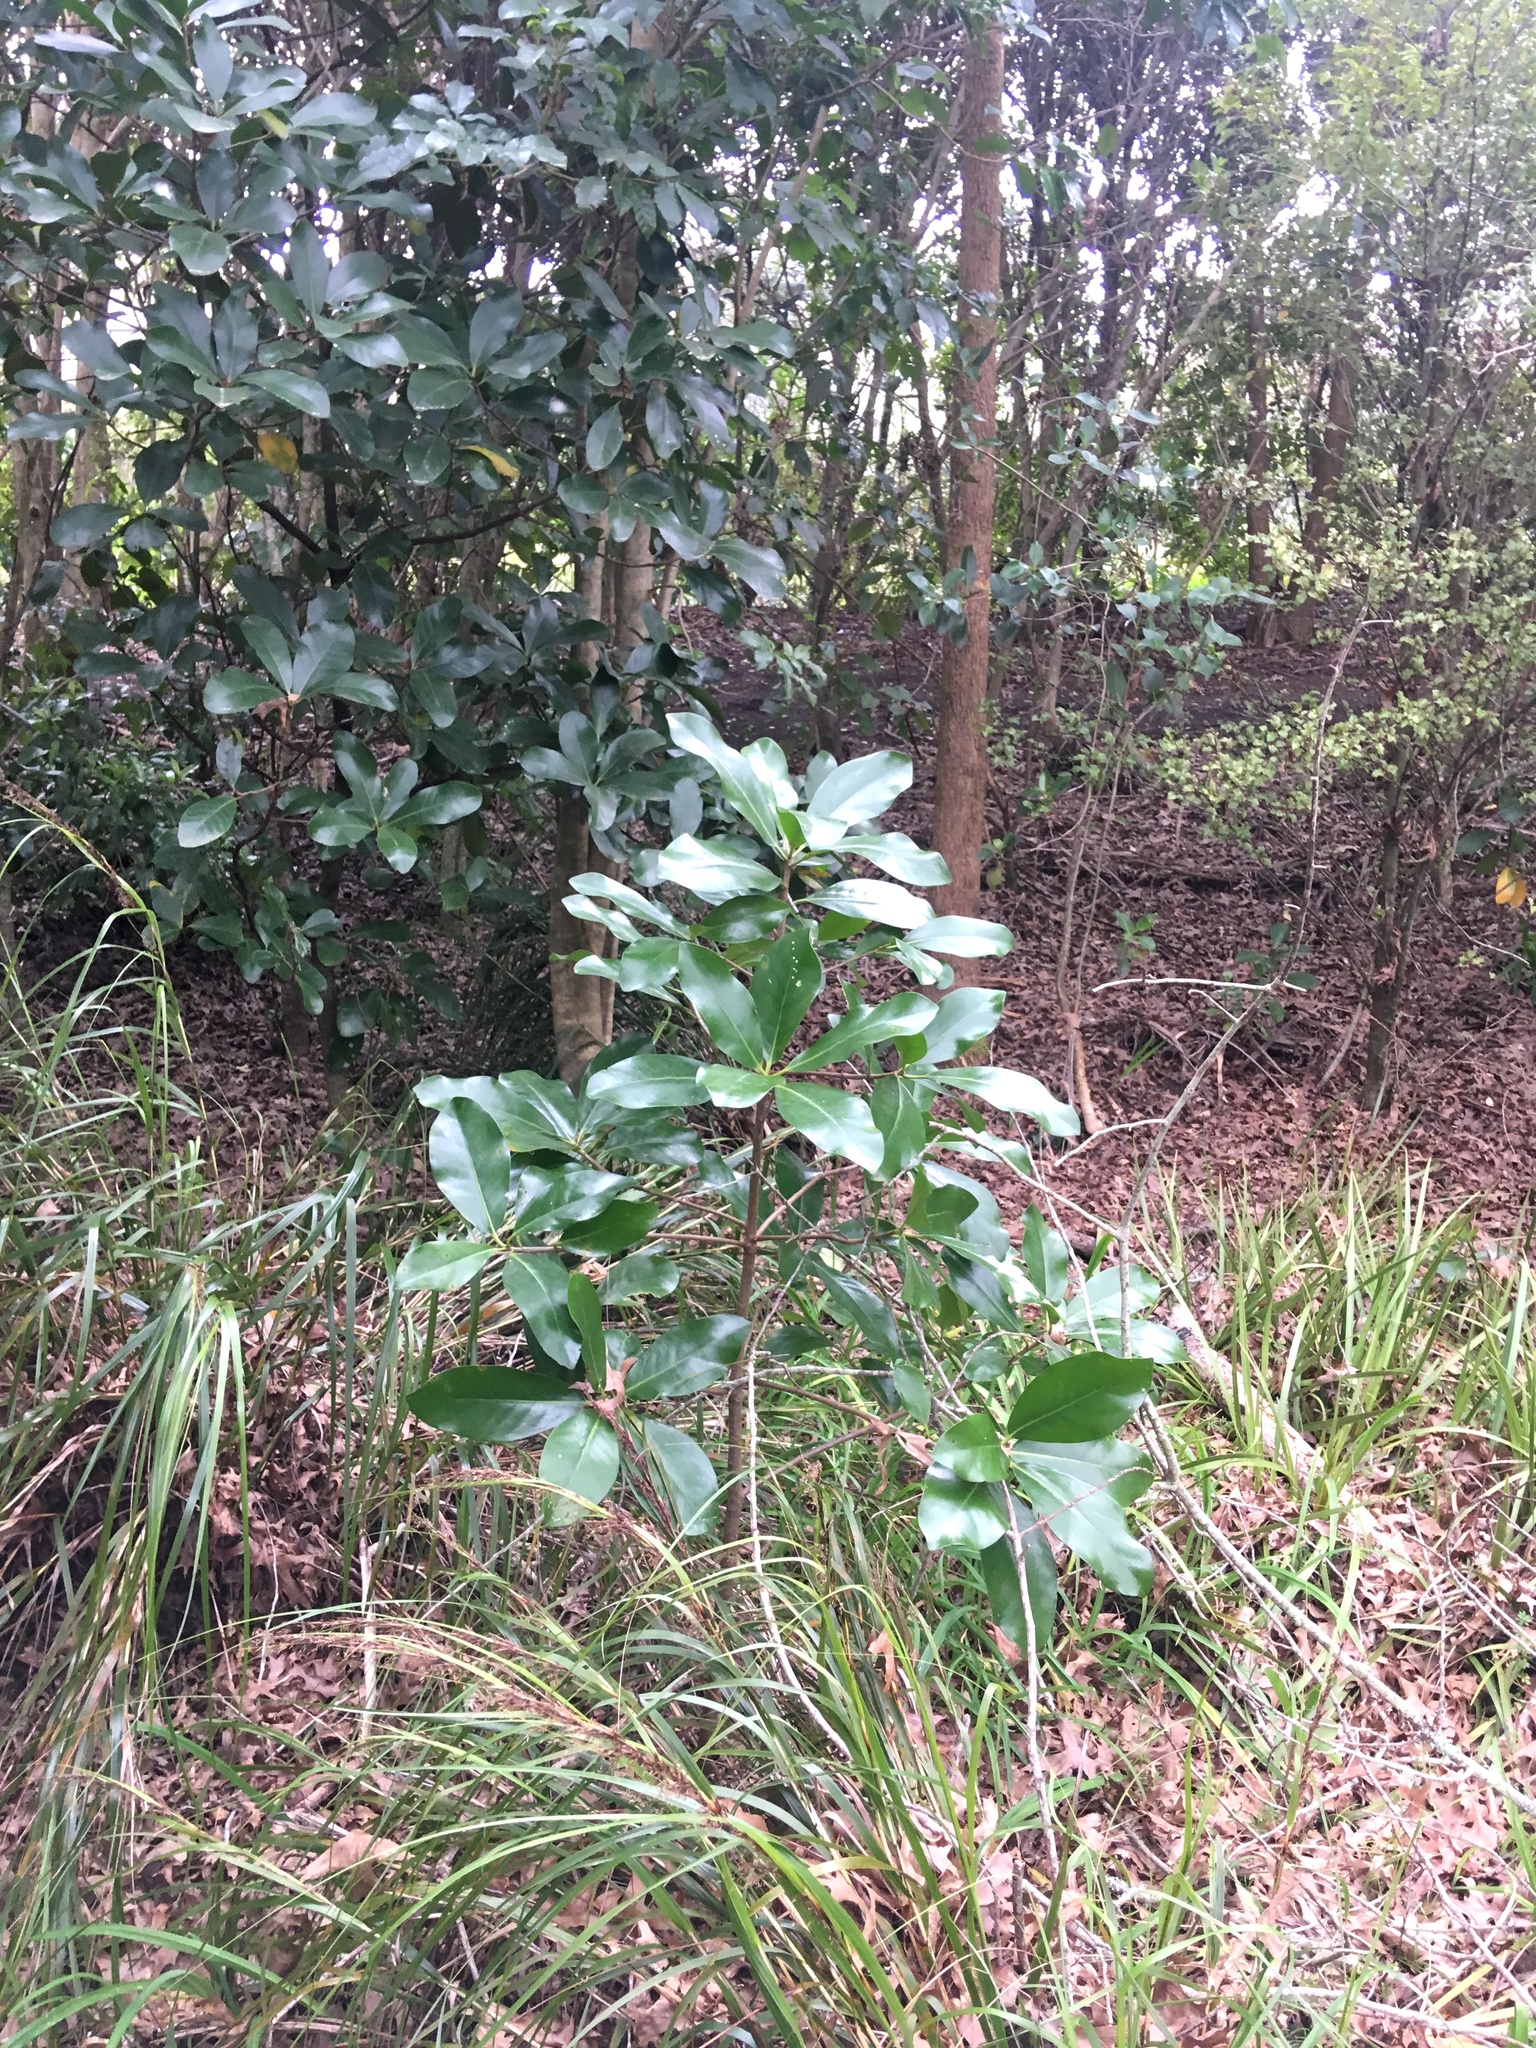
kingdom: Plantae
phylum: Tracheophyta
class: Magnoliopsida
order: Cucurbitales
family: Corynocarpaceae
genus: Corynocarpus
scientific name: Corynocarpus laevigatus
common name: New zealand laurel
